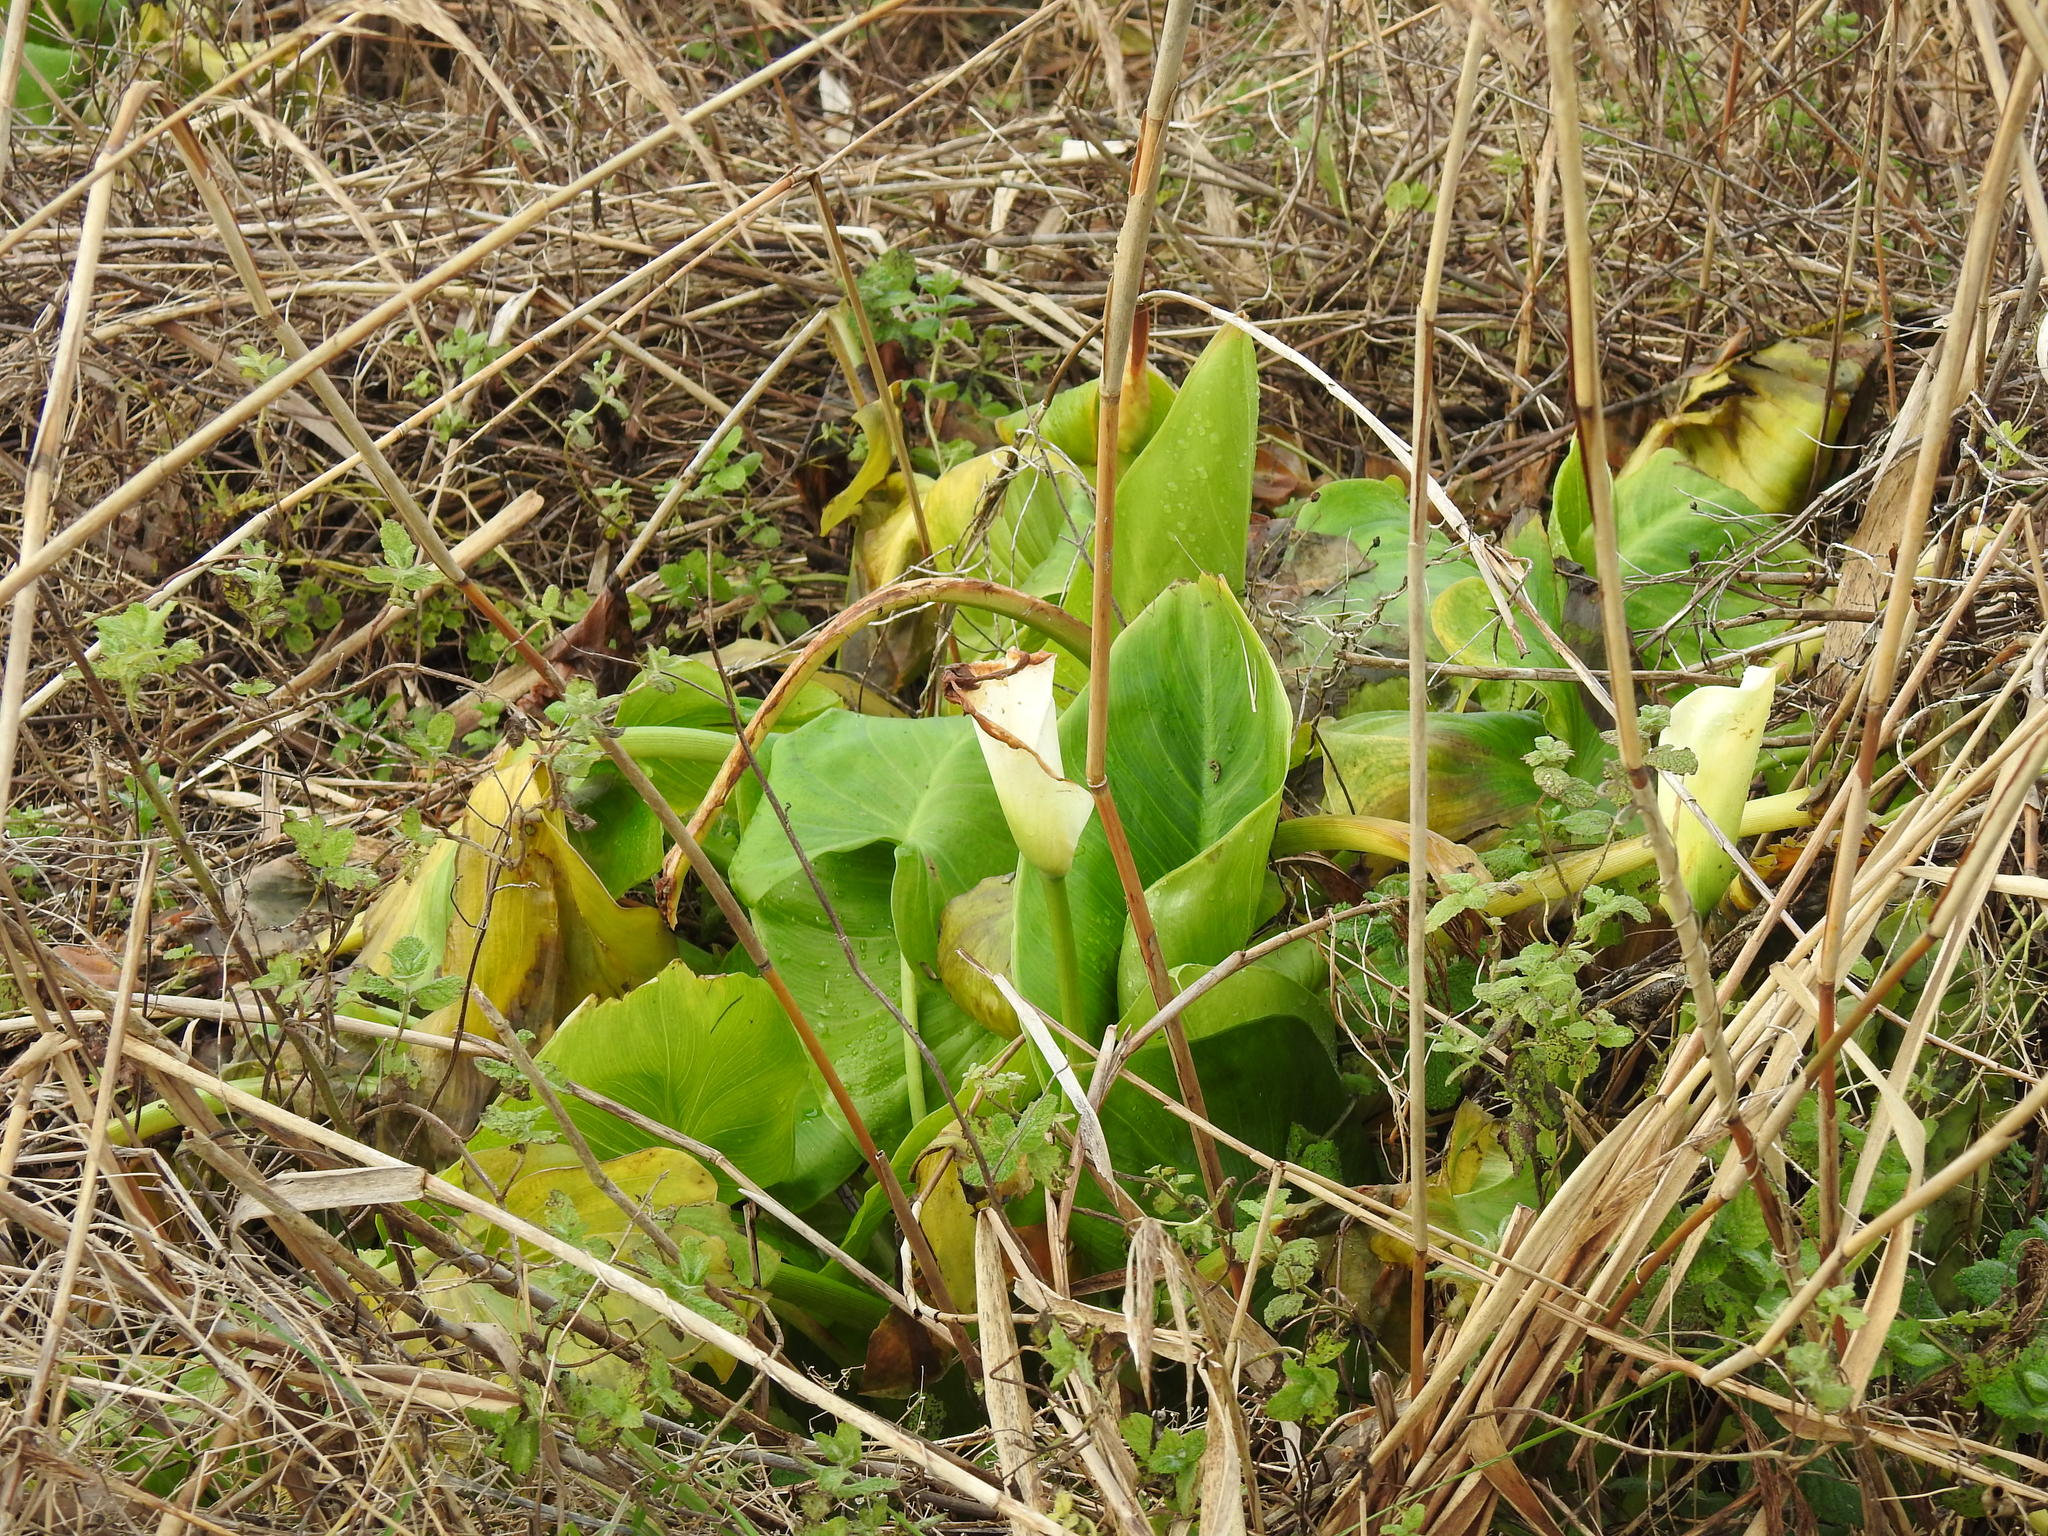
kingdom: Plantae
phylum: Tracheophyta
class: Liliopsida
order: Alismatales
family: Araceae
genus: Zantedeschia
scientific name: Zantedeschia aethiopica
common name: Altar-lily
